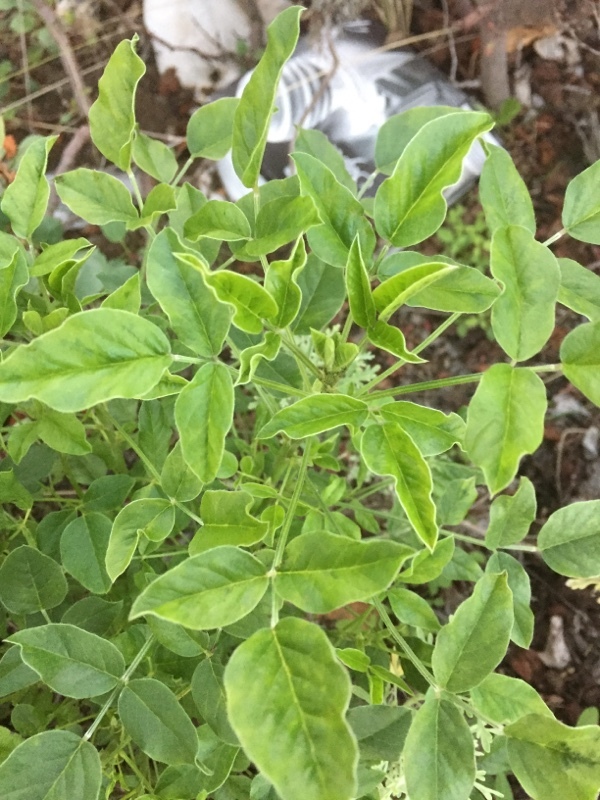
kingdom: Plantae
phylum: Tracheophyta
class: Magnoliopsida
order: Fabales
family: Fabaceae
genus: Bituminaria
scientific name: Bituminaria bituminosa
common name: Arabian pea
